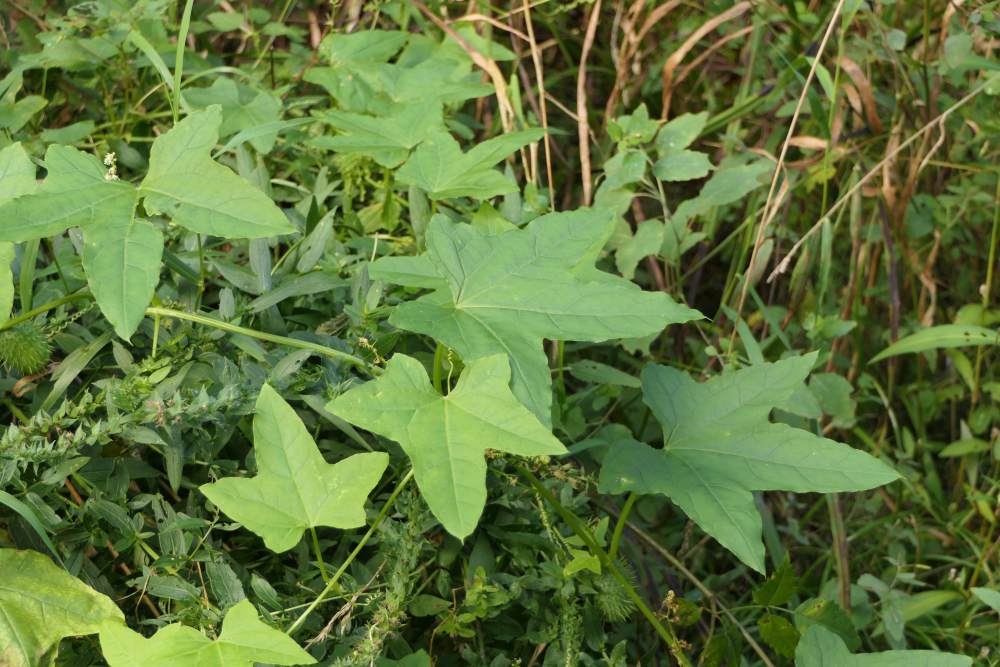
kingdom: Plantae
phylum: Tracheophyta
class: Magnoliopsida
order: Cucurbitales
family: Cucurbitaceae
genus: Echinocystis
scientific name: Echinocystis lobata
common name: Wild cucumber
